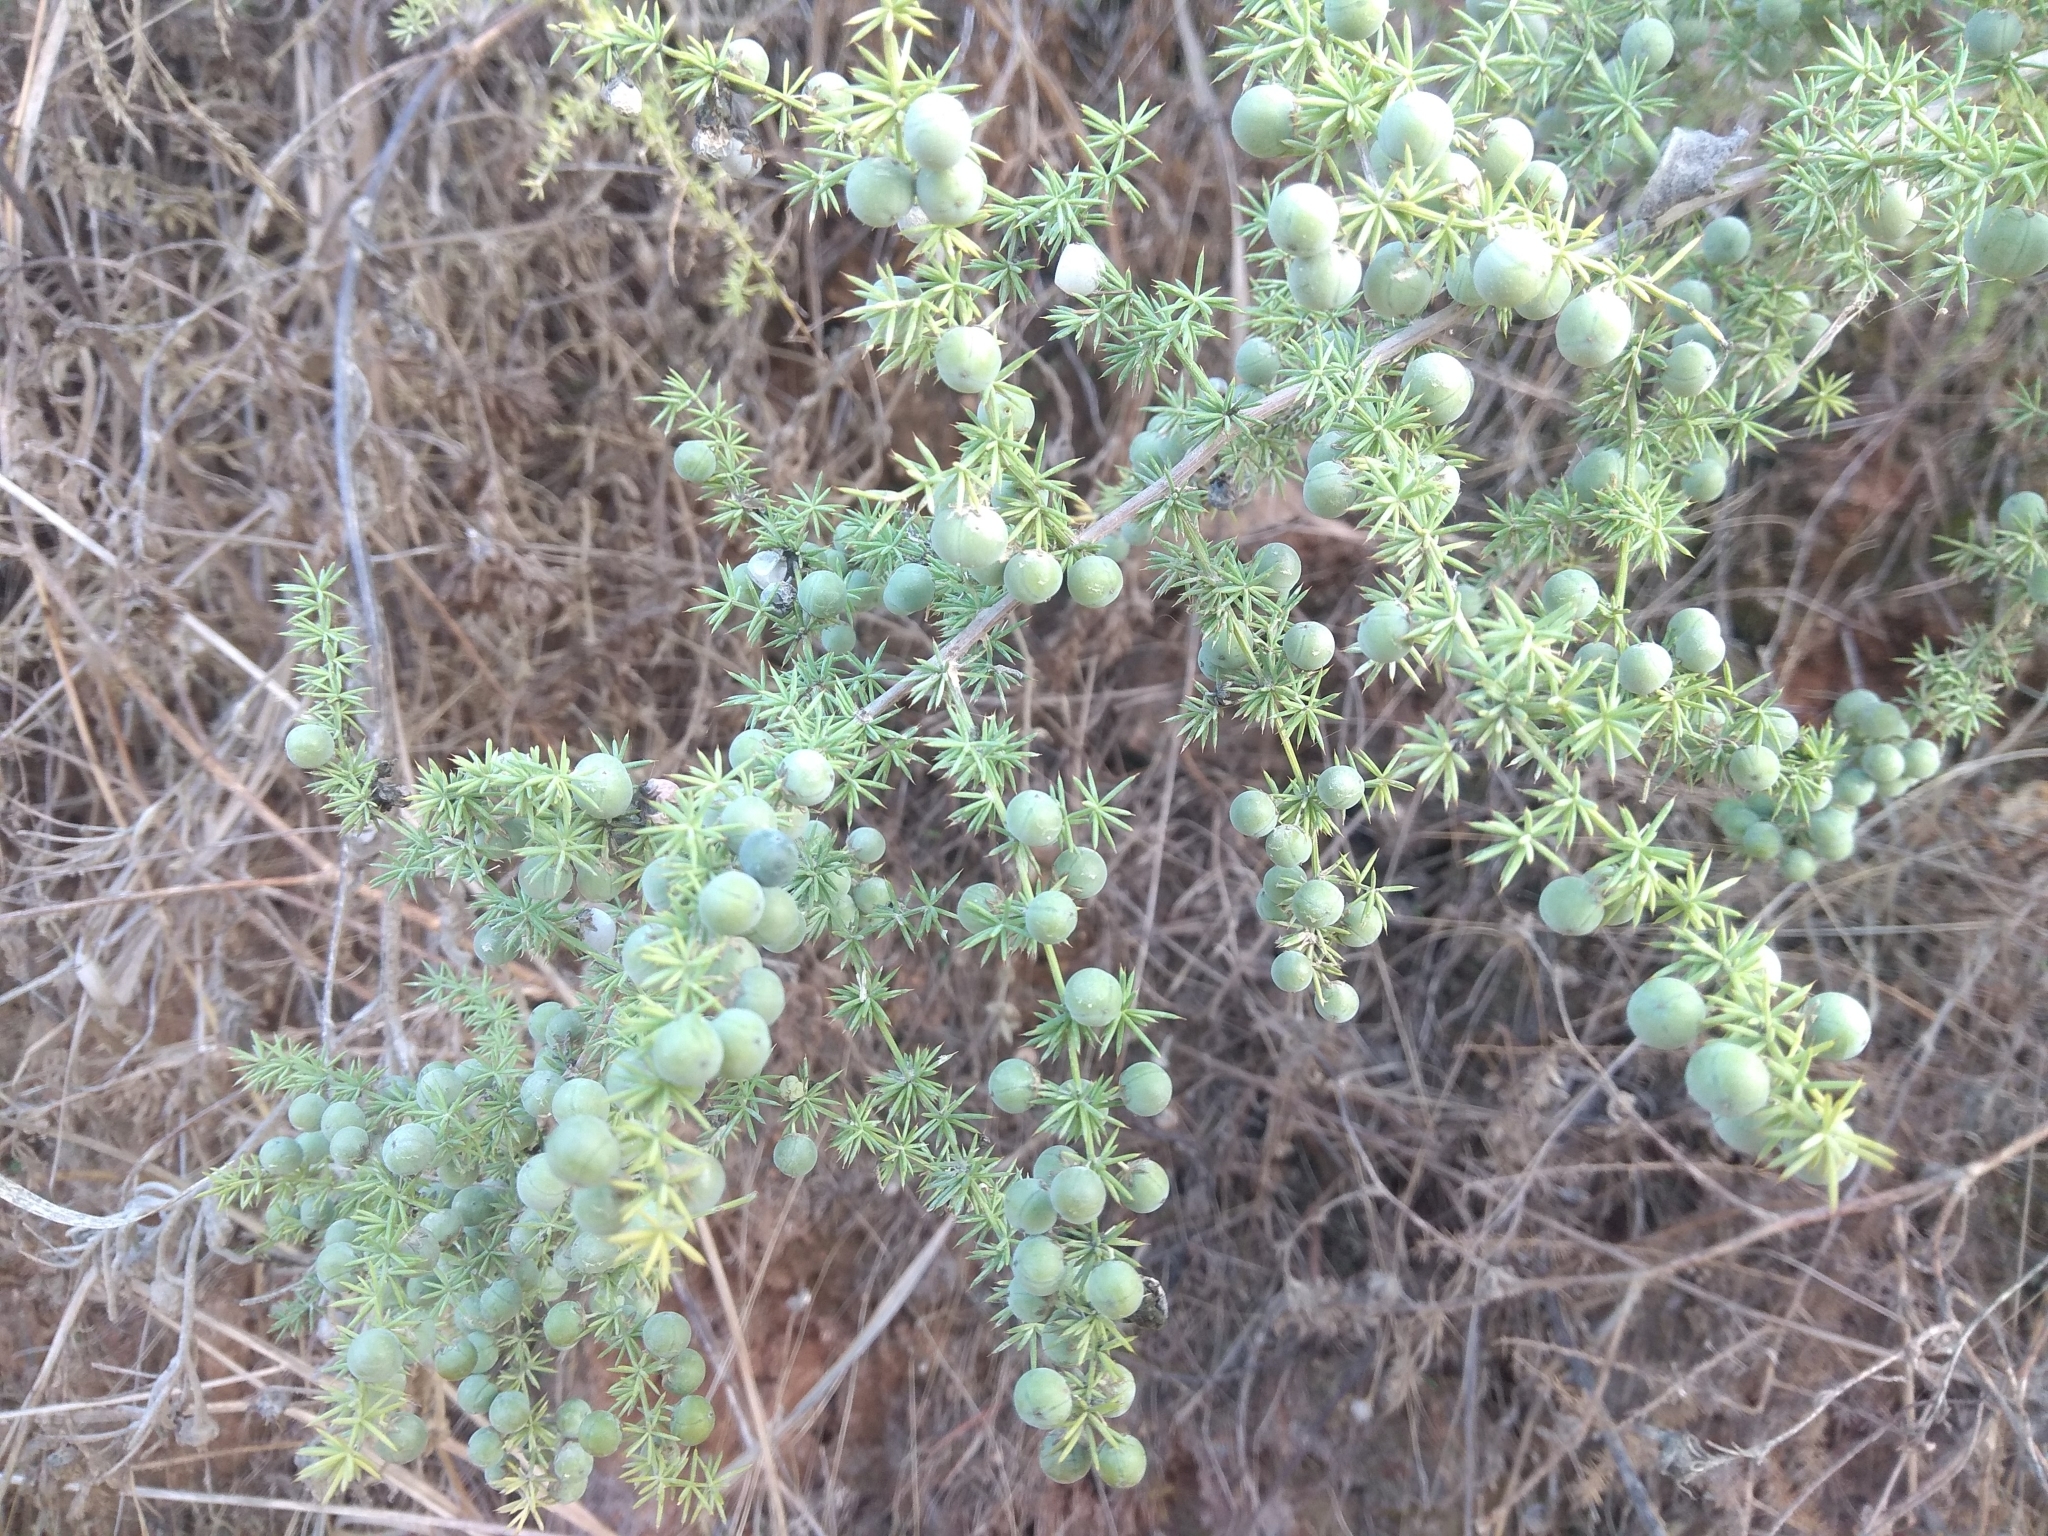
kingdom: Plantae
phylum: Tracheophyta
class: Liliopsida
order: Asparagales
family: Asparagaceae
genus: Asparagus
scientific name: Asparagus acutifolius
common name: Wild asparagus
